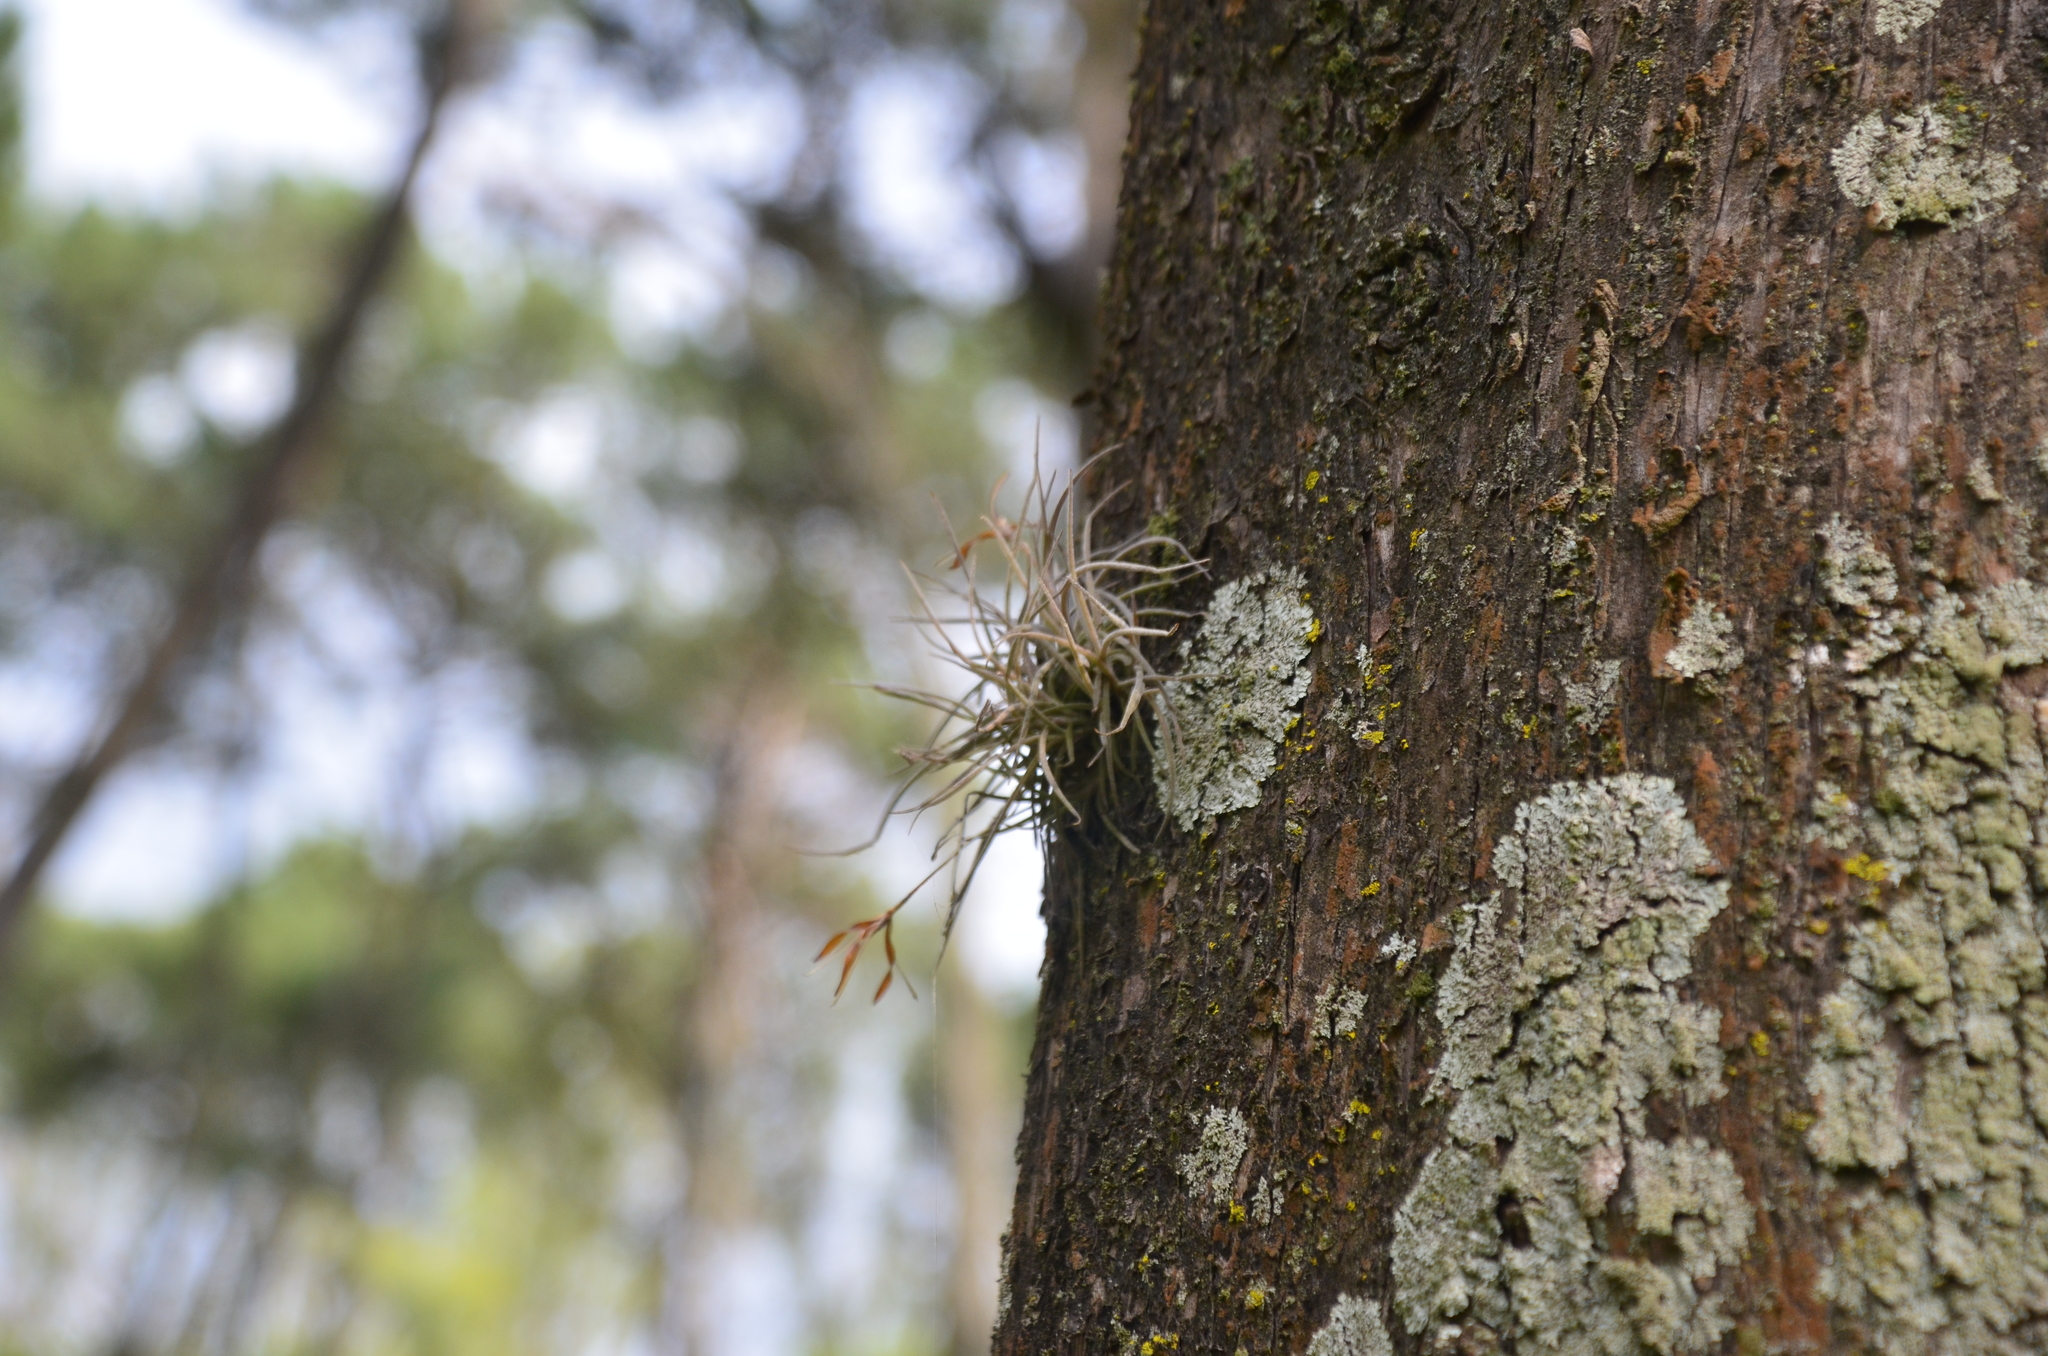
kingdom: Plantae
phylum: Tracheophyta
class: Liliopsida
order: Poales
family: Bromeliaceae
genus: Tillandsia
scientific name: Tillandsia recurvata
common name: Small ballmoss
